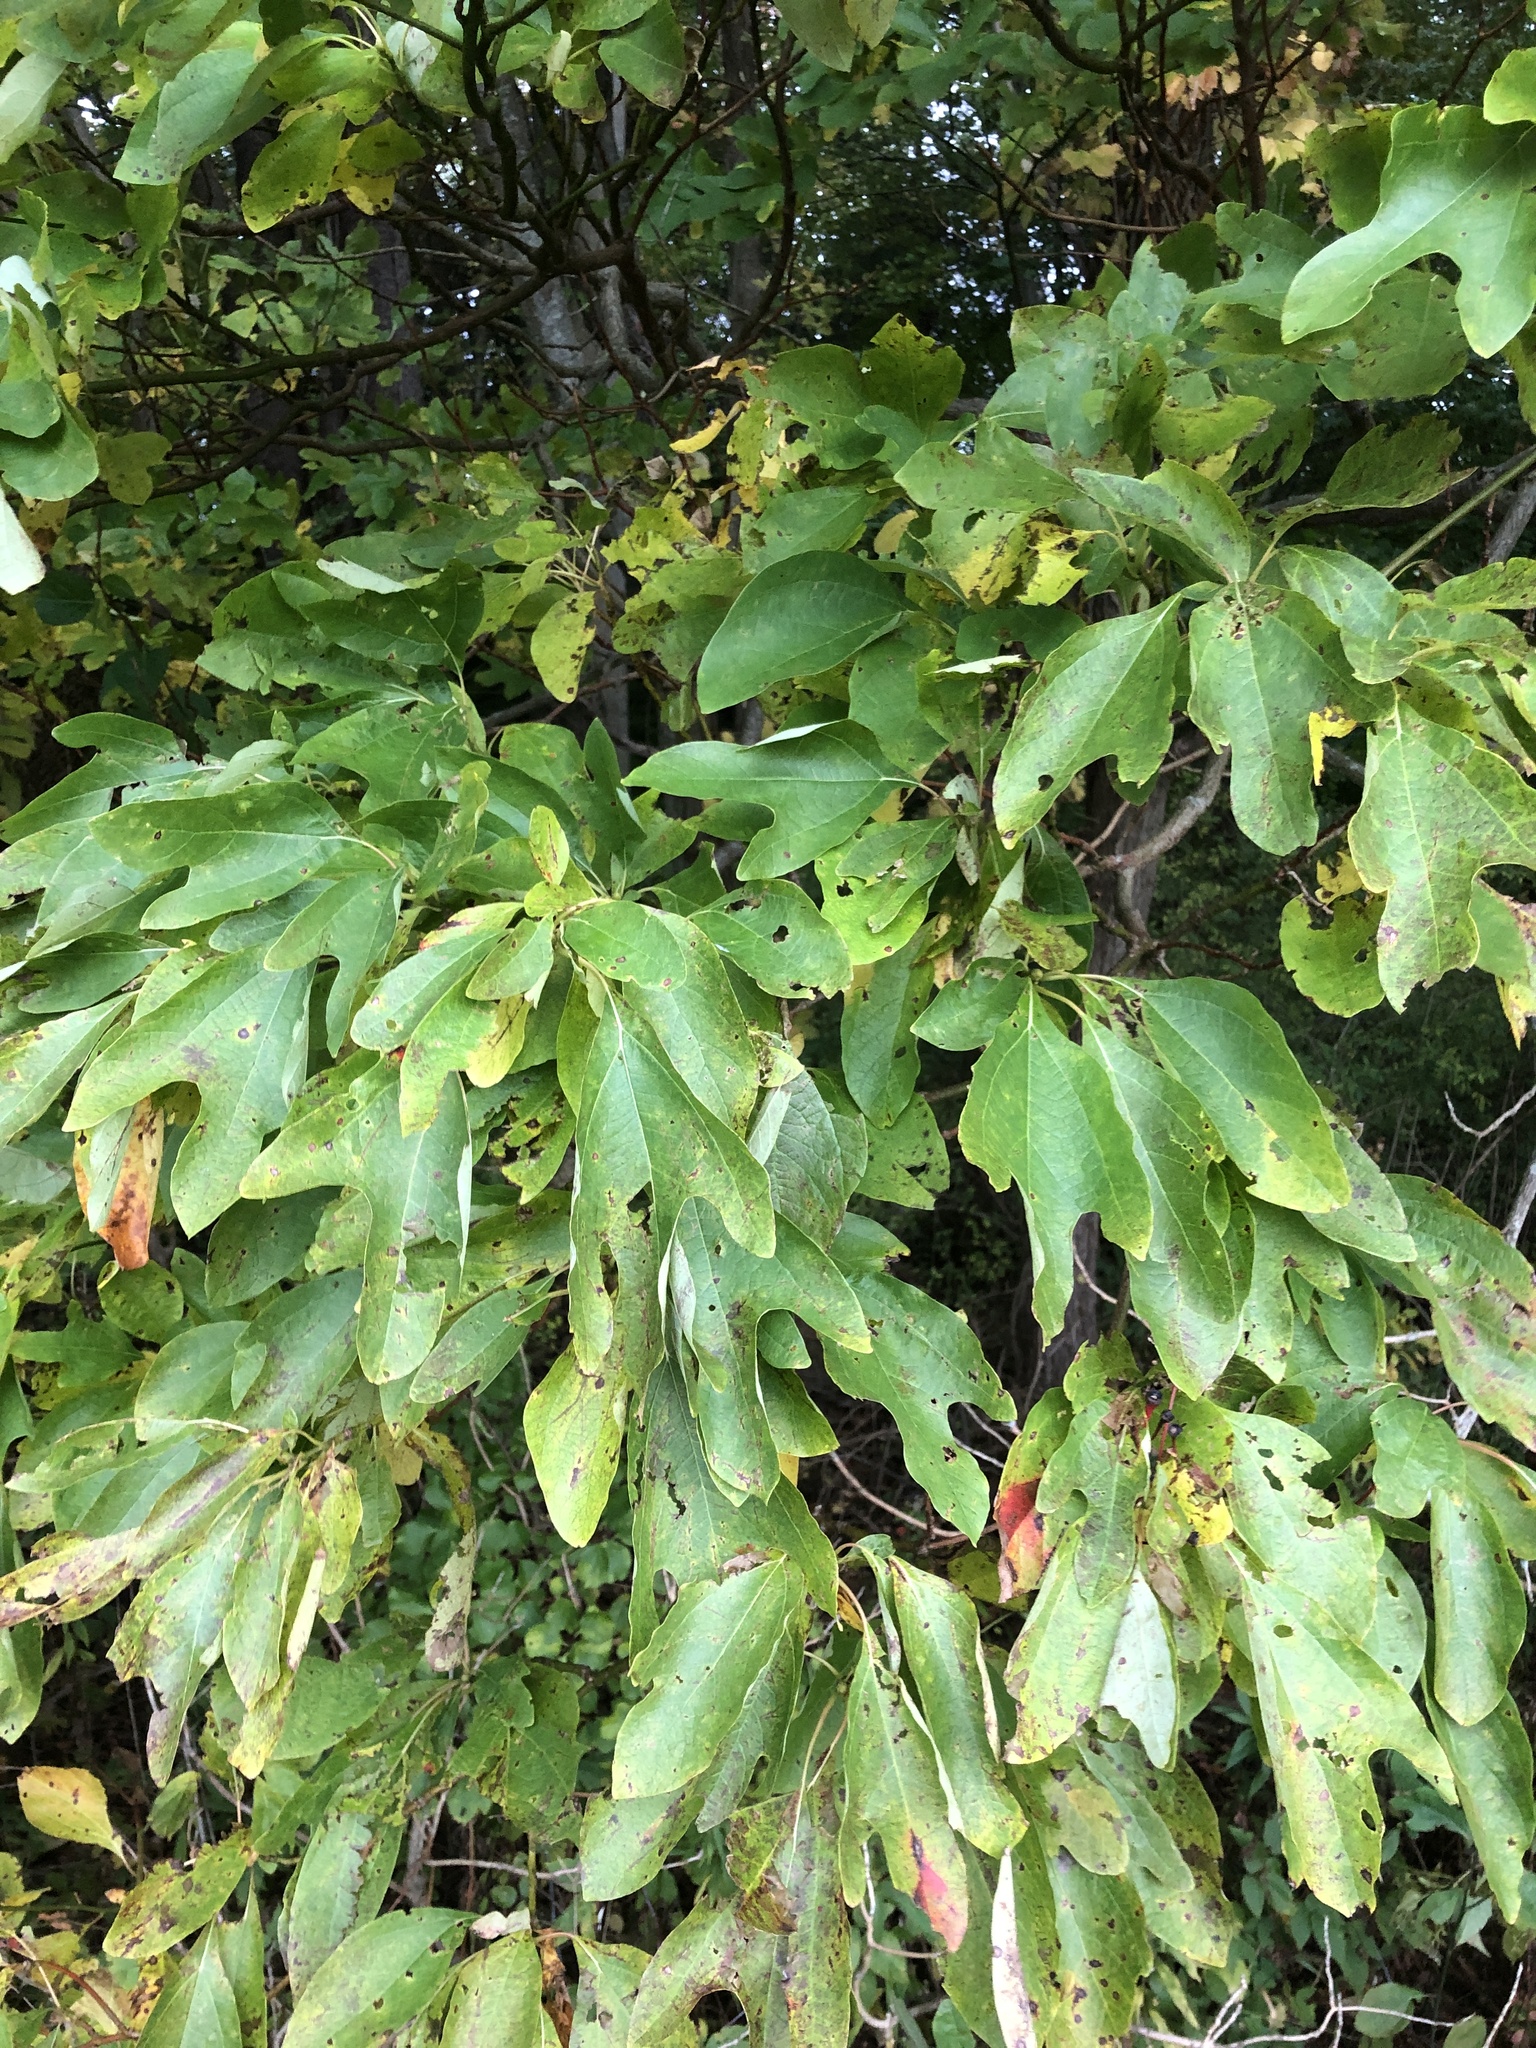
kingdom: Plantae
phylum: Tracheophyta
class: Magnoliopsida
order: Laurales
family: Lauraceae
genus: Sassafras
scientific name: Sassafras albidum
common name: Sassafras
